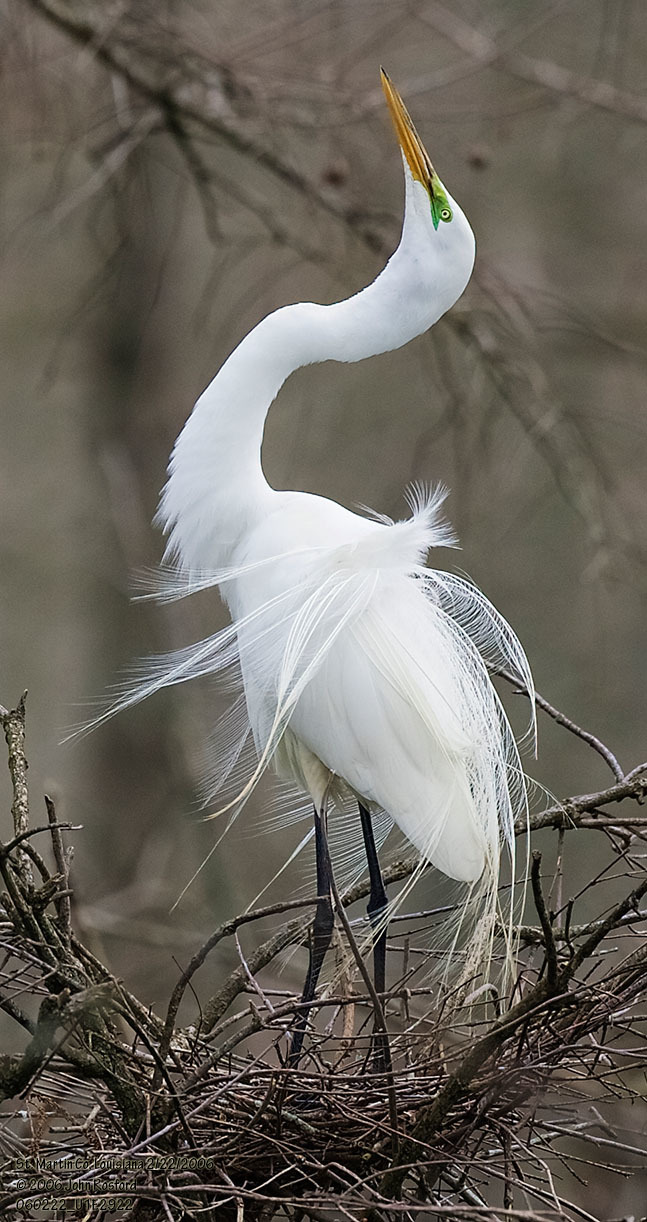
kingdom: Animalia
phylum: Chordata
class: Aves
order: Pelecaniformes
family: Ardeidae
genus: Ardea
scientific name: Ardea alba
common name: Great egret
